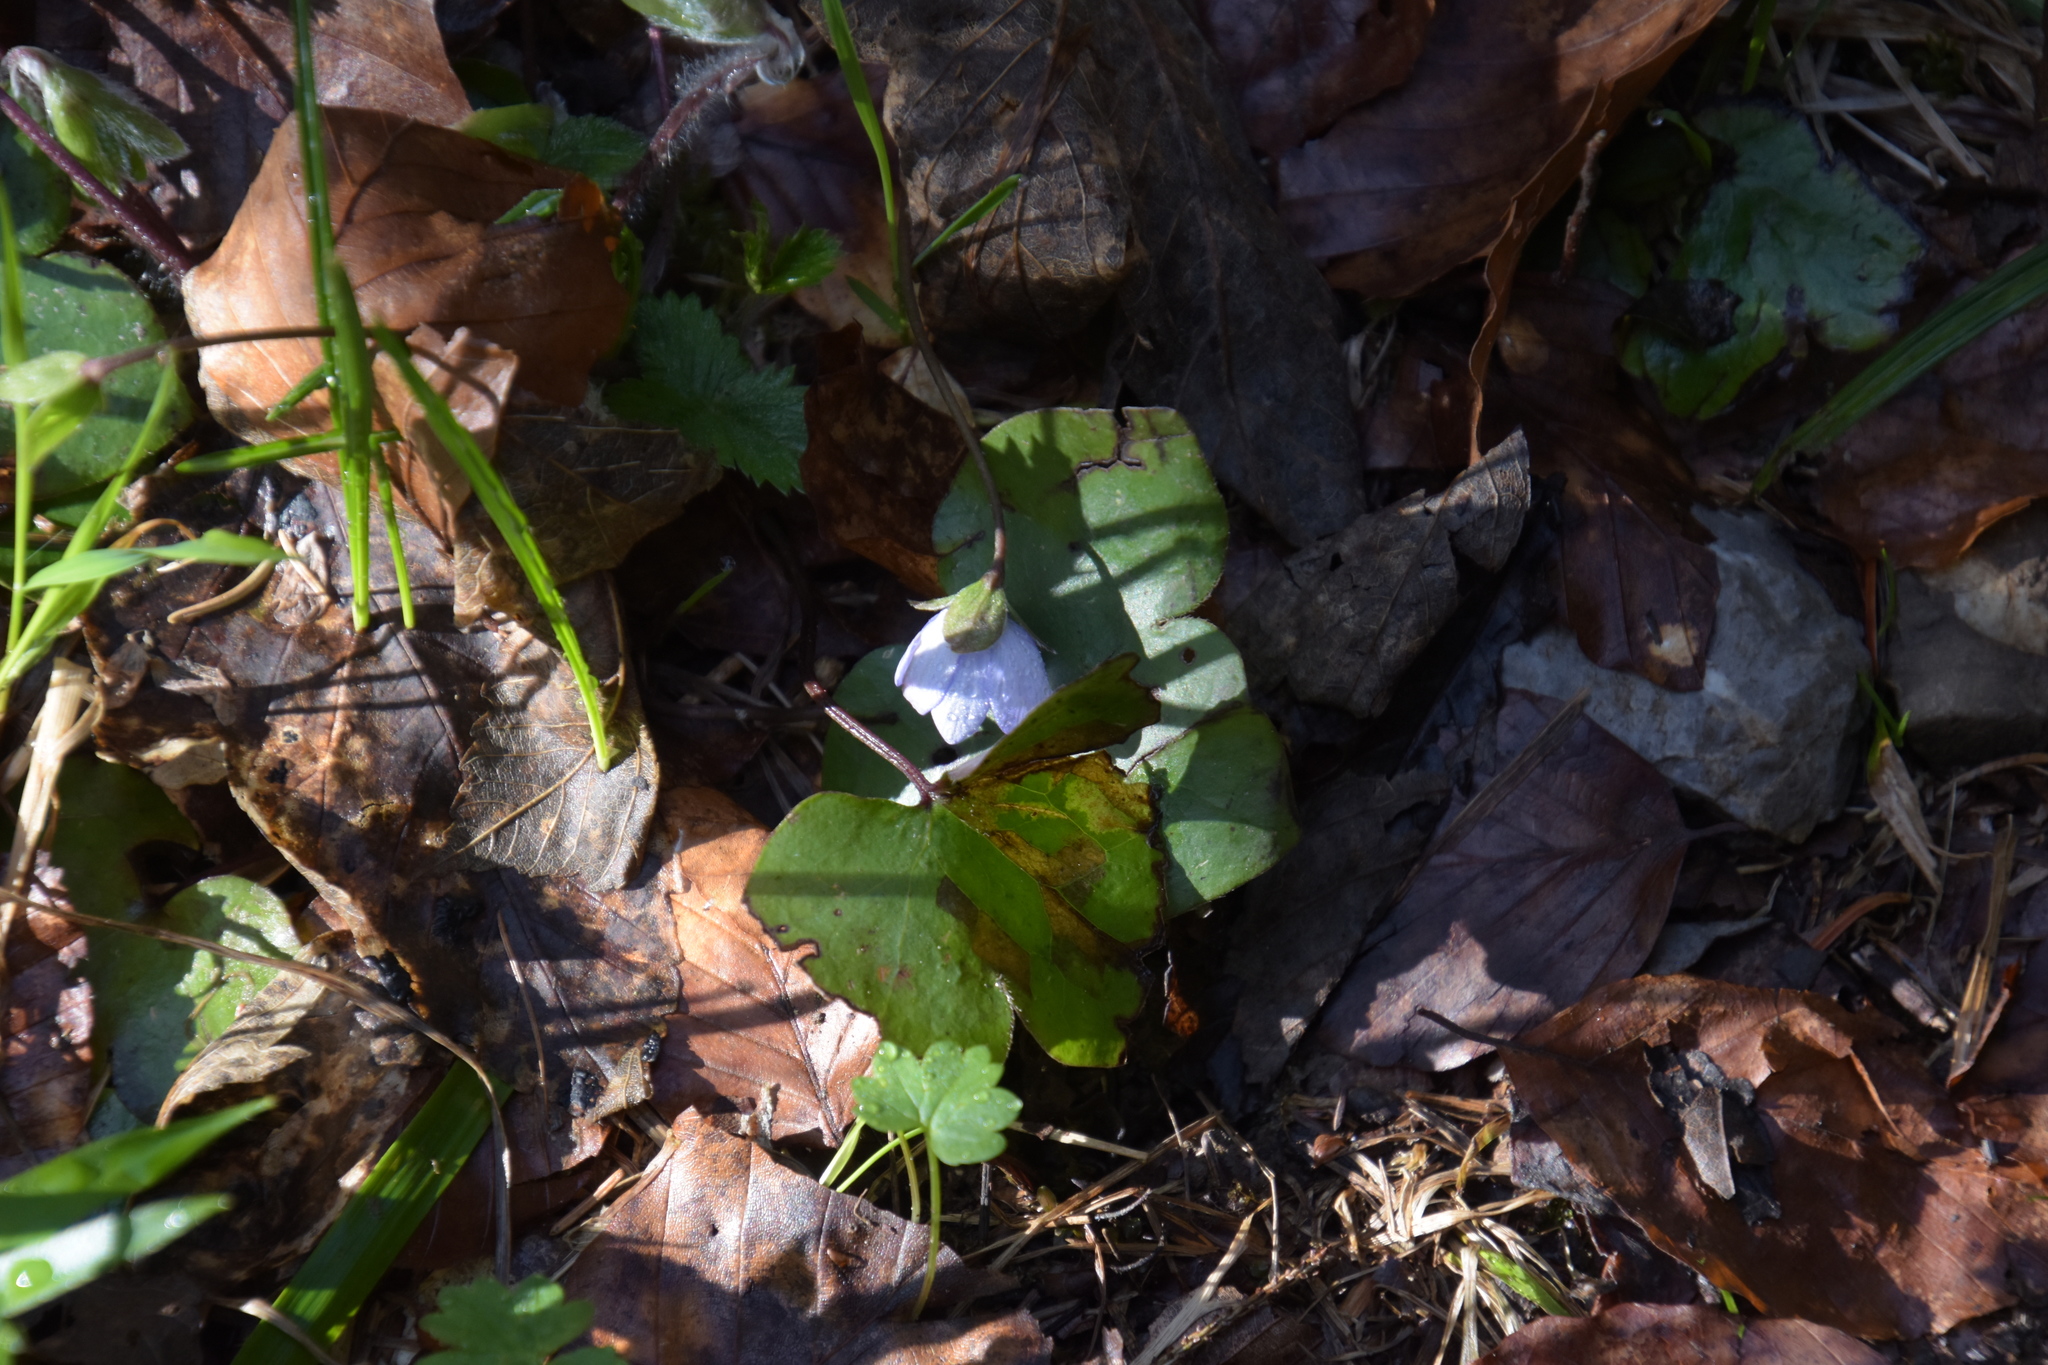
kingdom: Plantae
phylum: Tracheophyta
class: Magnoliopsida
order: Ranunculales
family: Ranunculaceae
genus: Hepatica
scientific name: Hepatica nobilis
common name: Liverleaf
